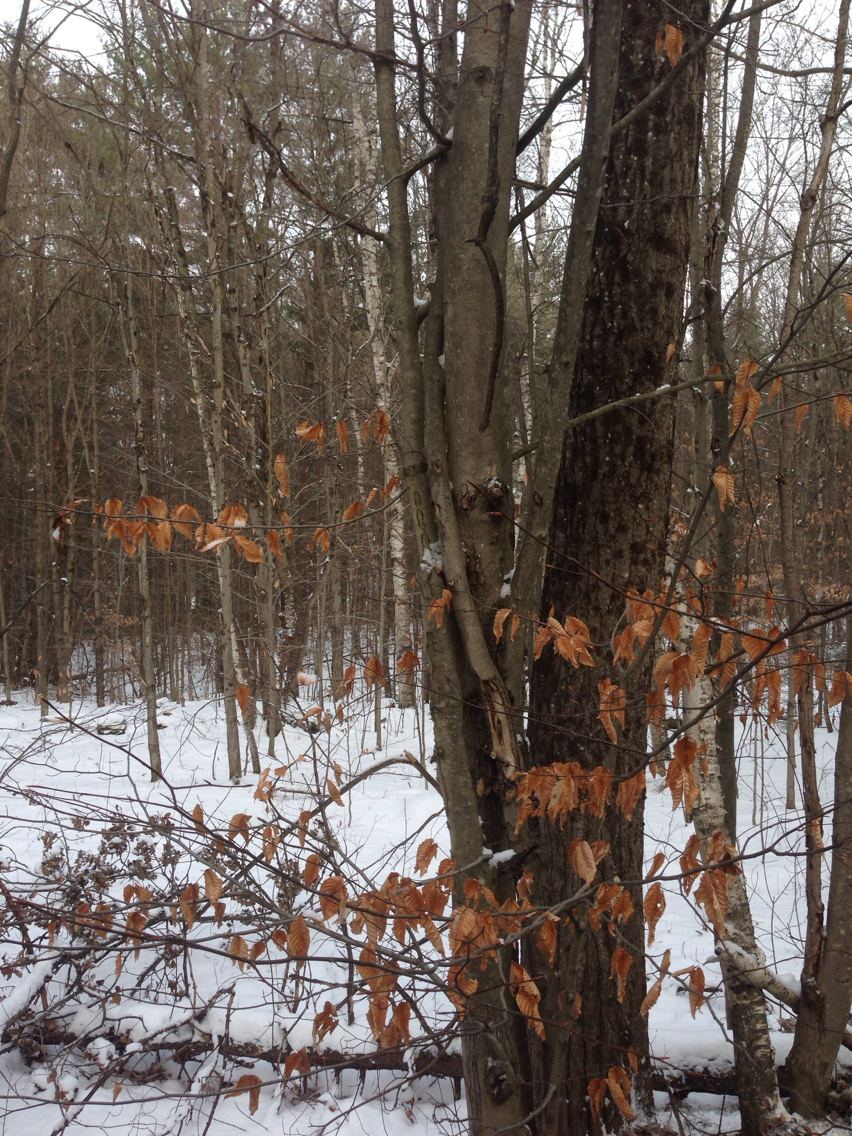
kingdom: Plantae
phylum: Tracheophyta
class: Magnoliopsida
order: Fagales
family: Fagaceae
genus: Fagus
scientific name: Fagus grandifolia
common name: American beech
